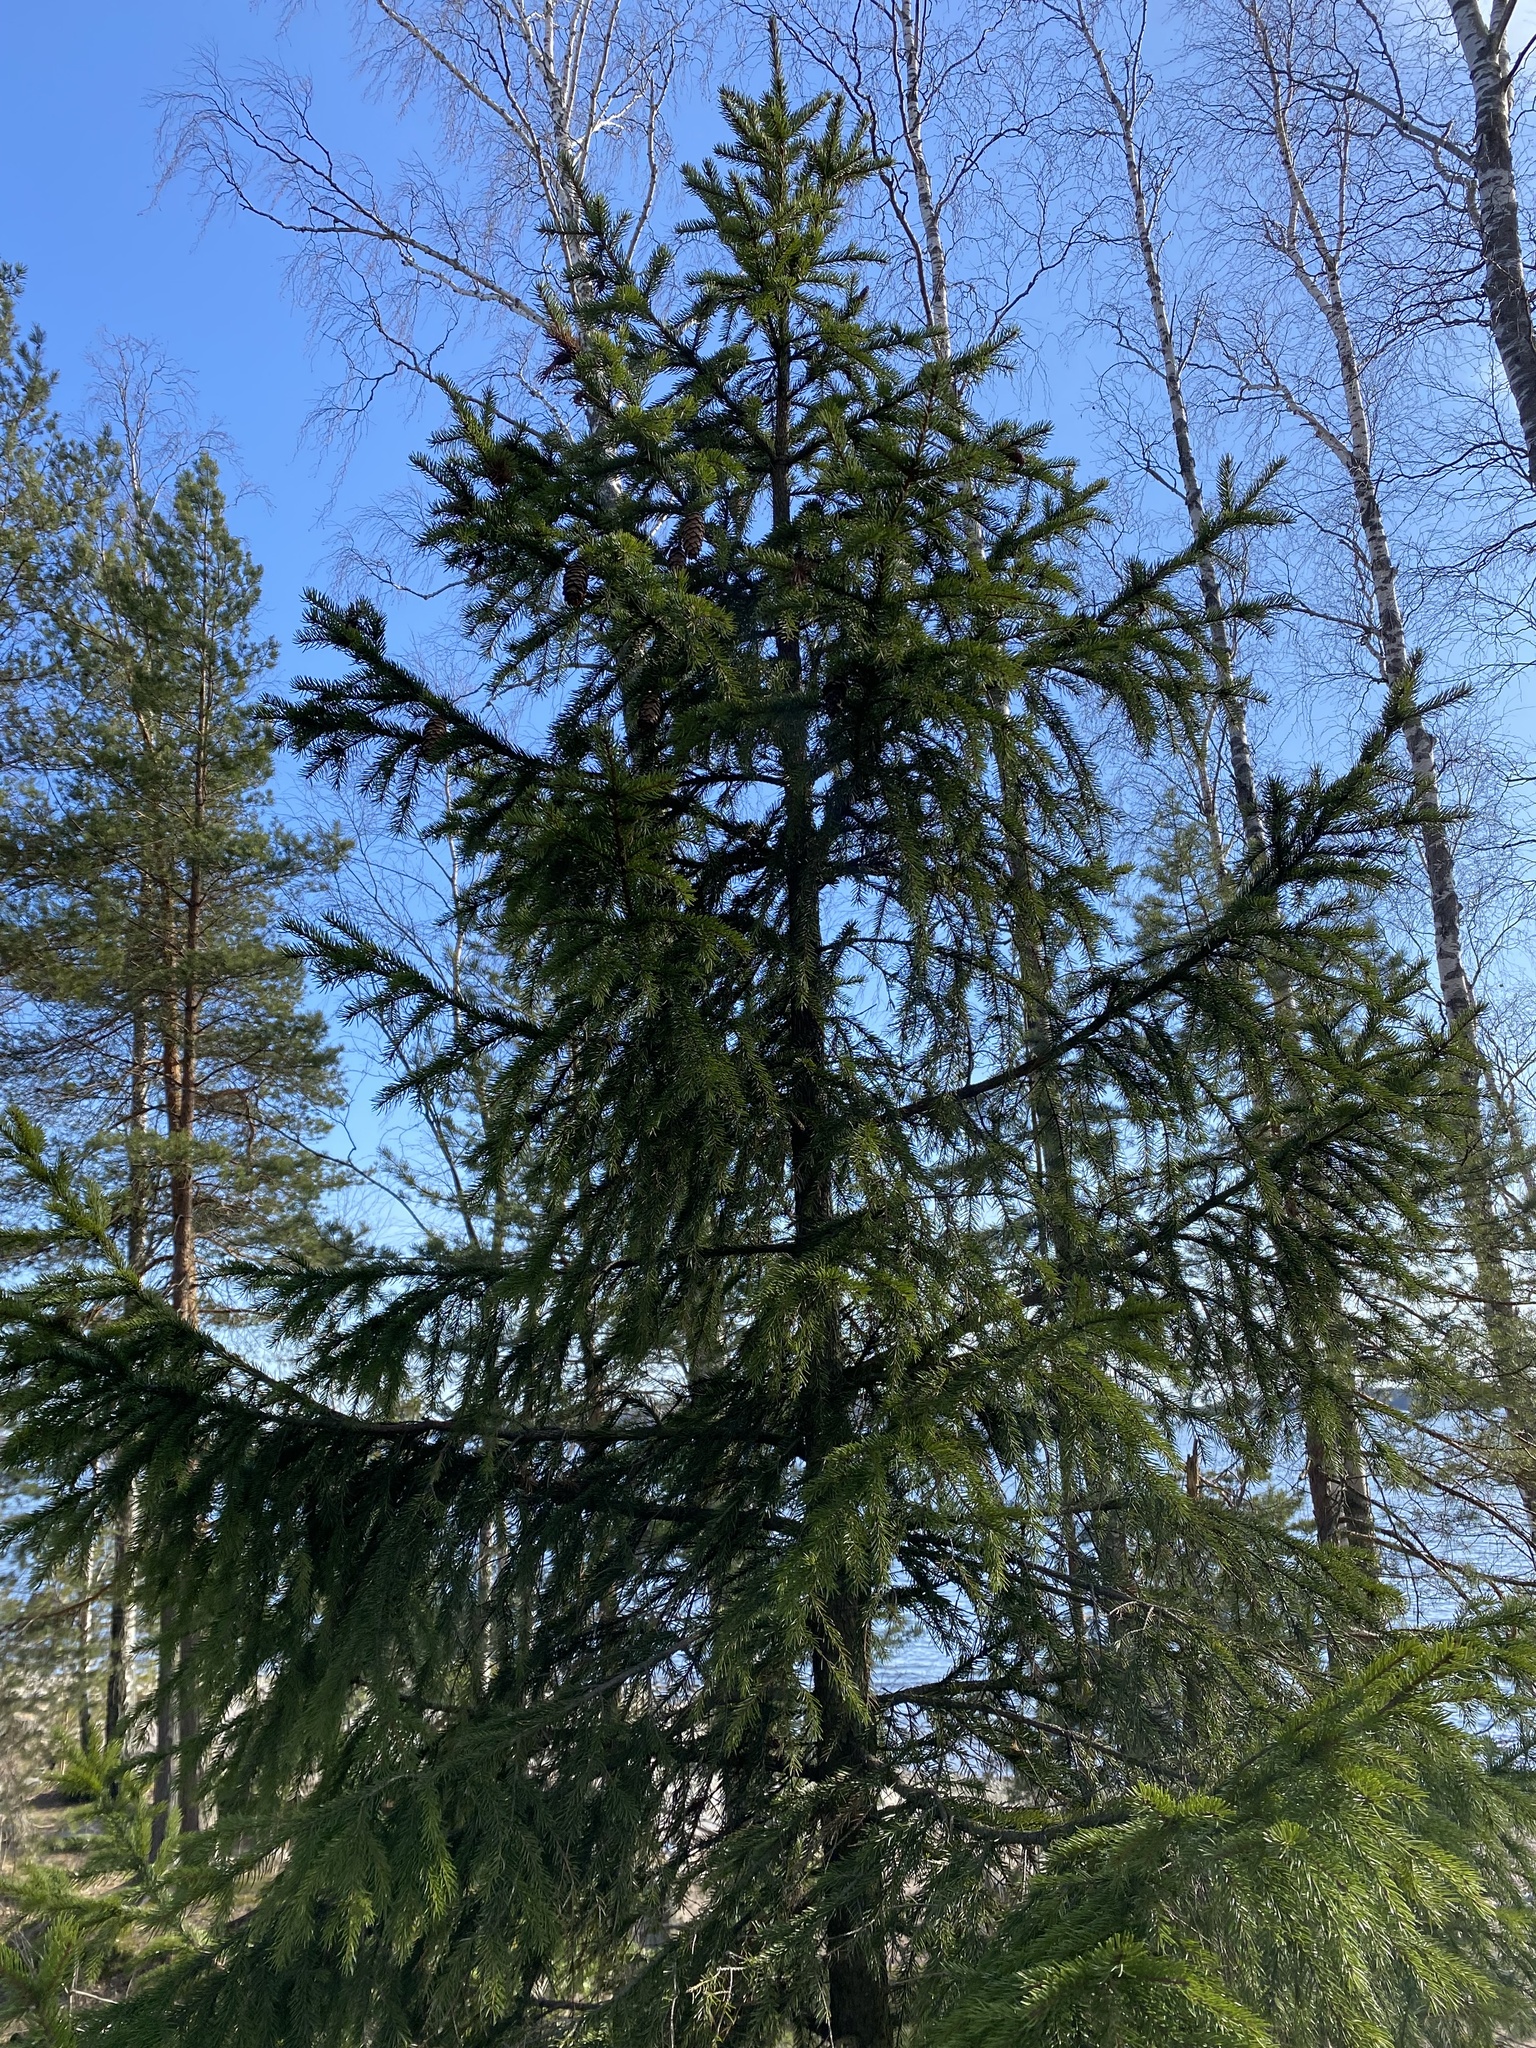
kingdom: Plantae
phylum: Tracheophyta
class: Pinopsida
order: Pinales
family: Pinaceae
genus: Picea
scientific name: Picea abies
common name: Norway spruce
